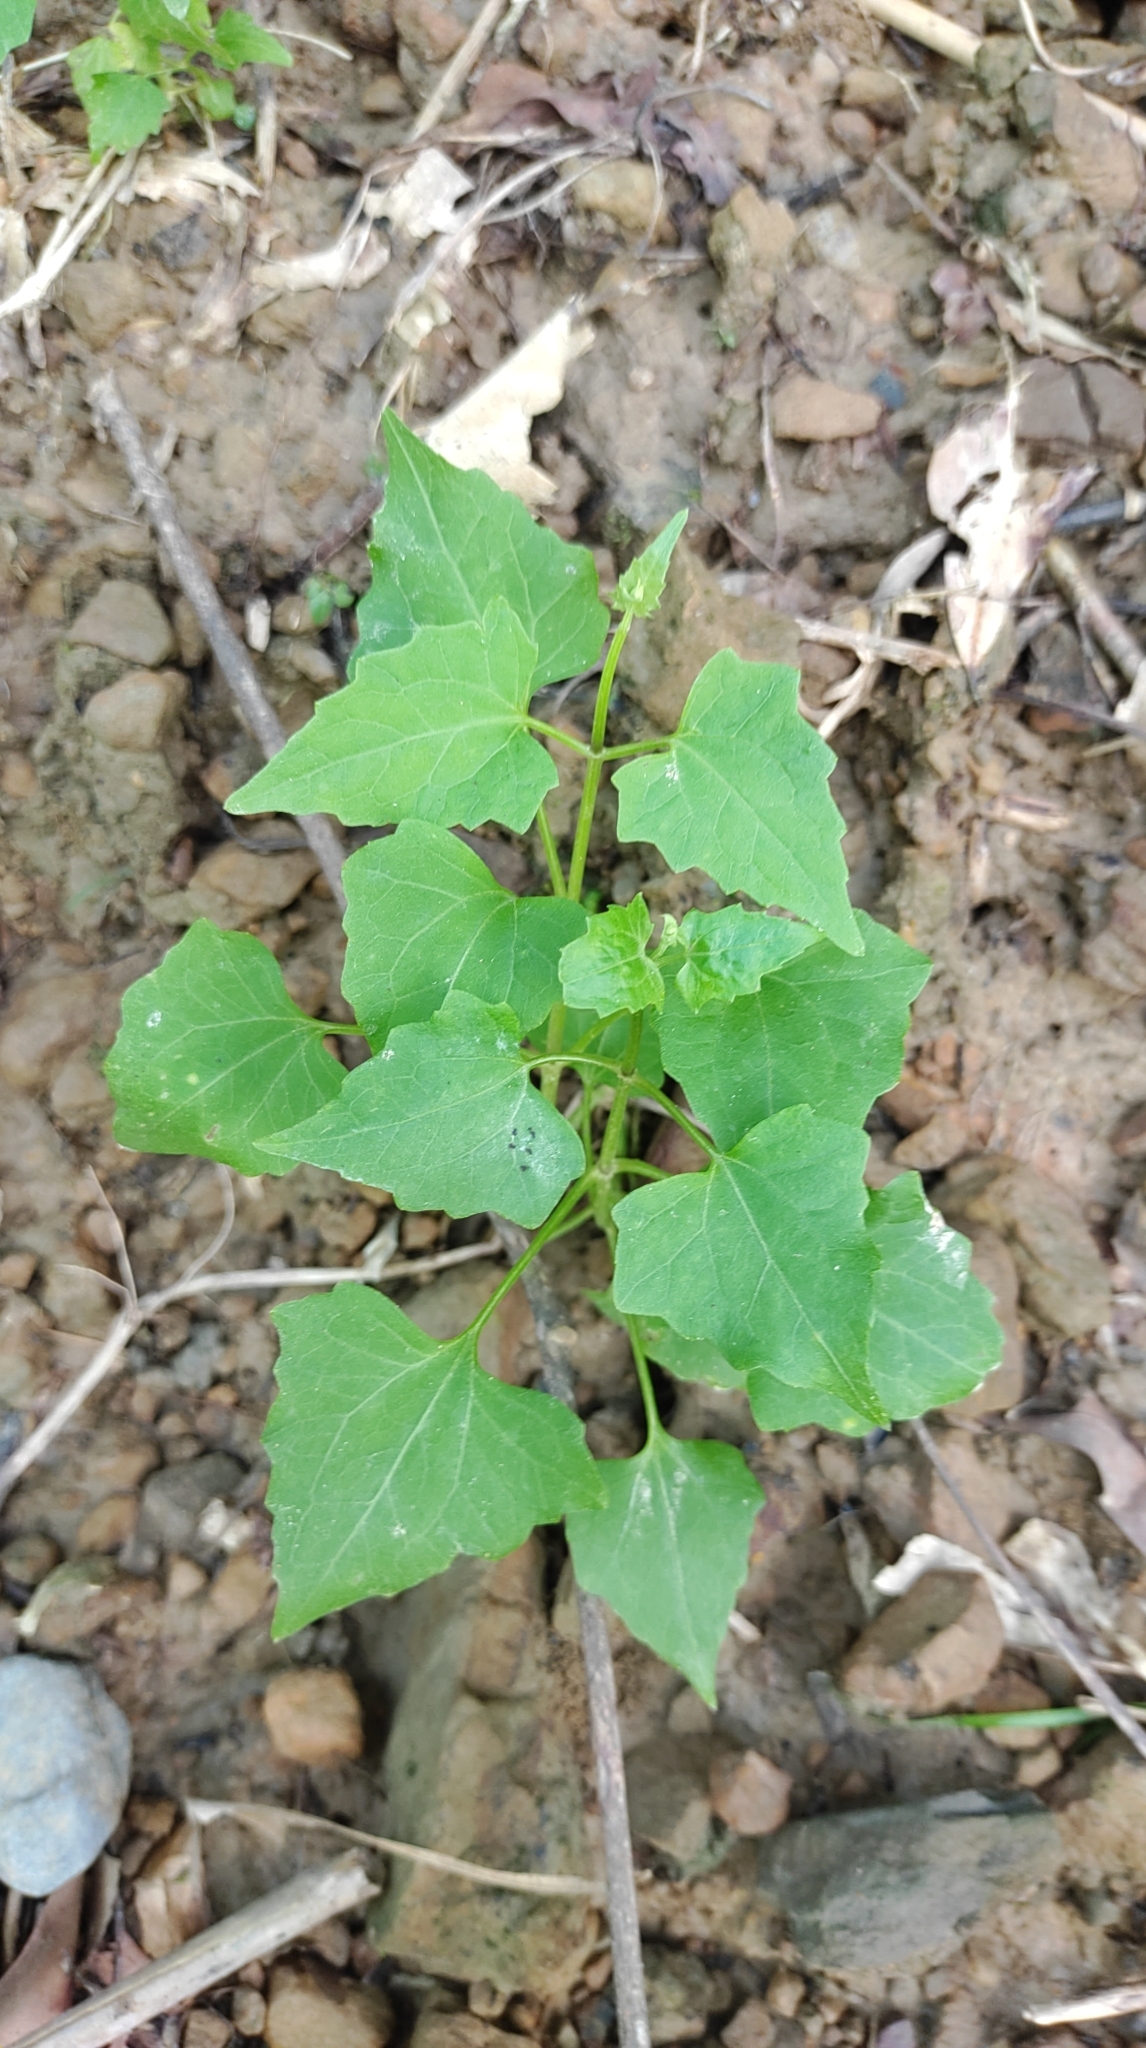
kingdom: Plantae
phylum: Tracheophyta
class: Magnoliopsida
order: Asterales
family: Asteraceae
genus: Mikania
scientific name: Mikania micrantha
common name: Mile-a-minute
